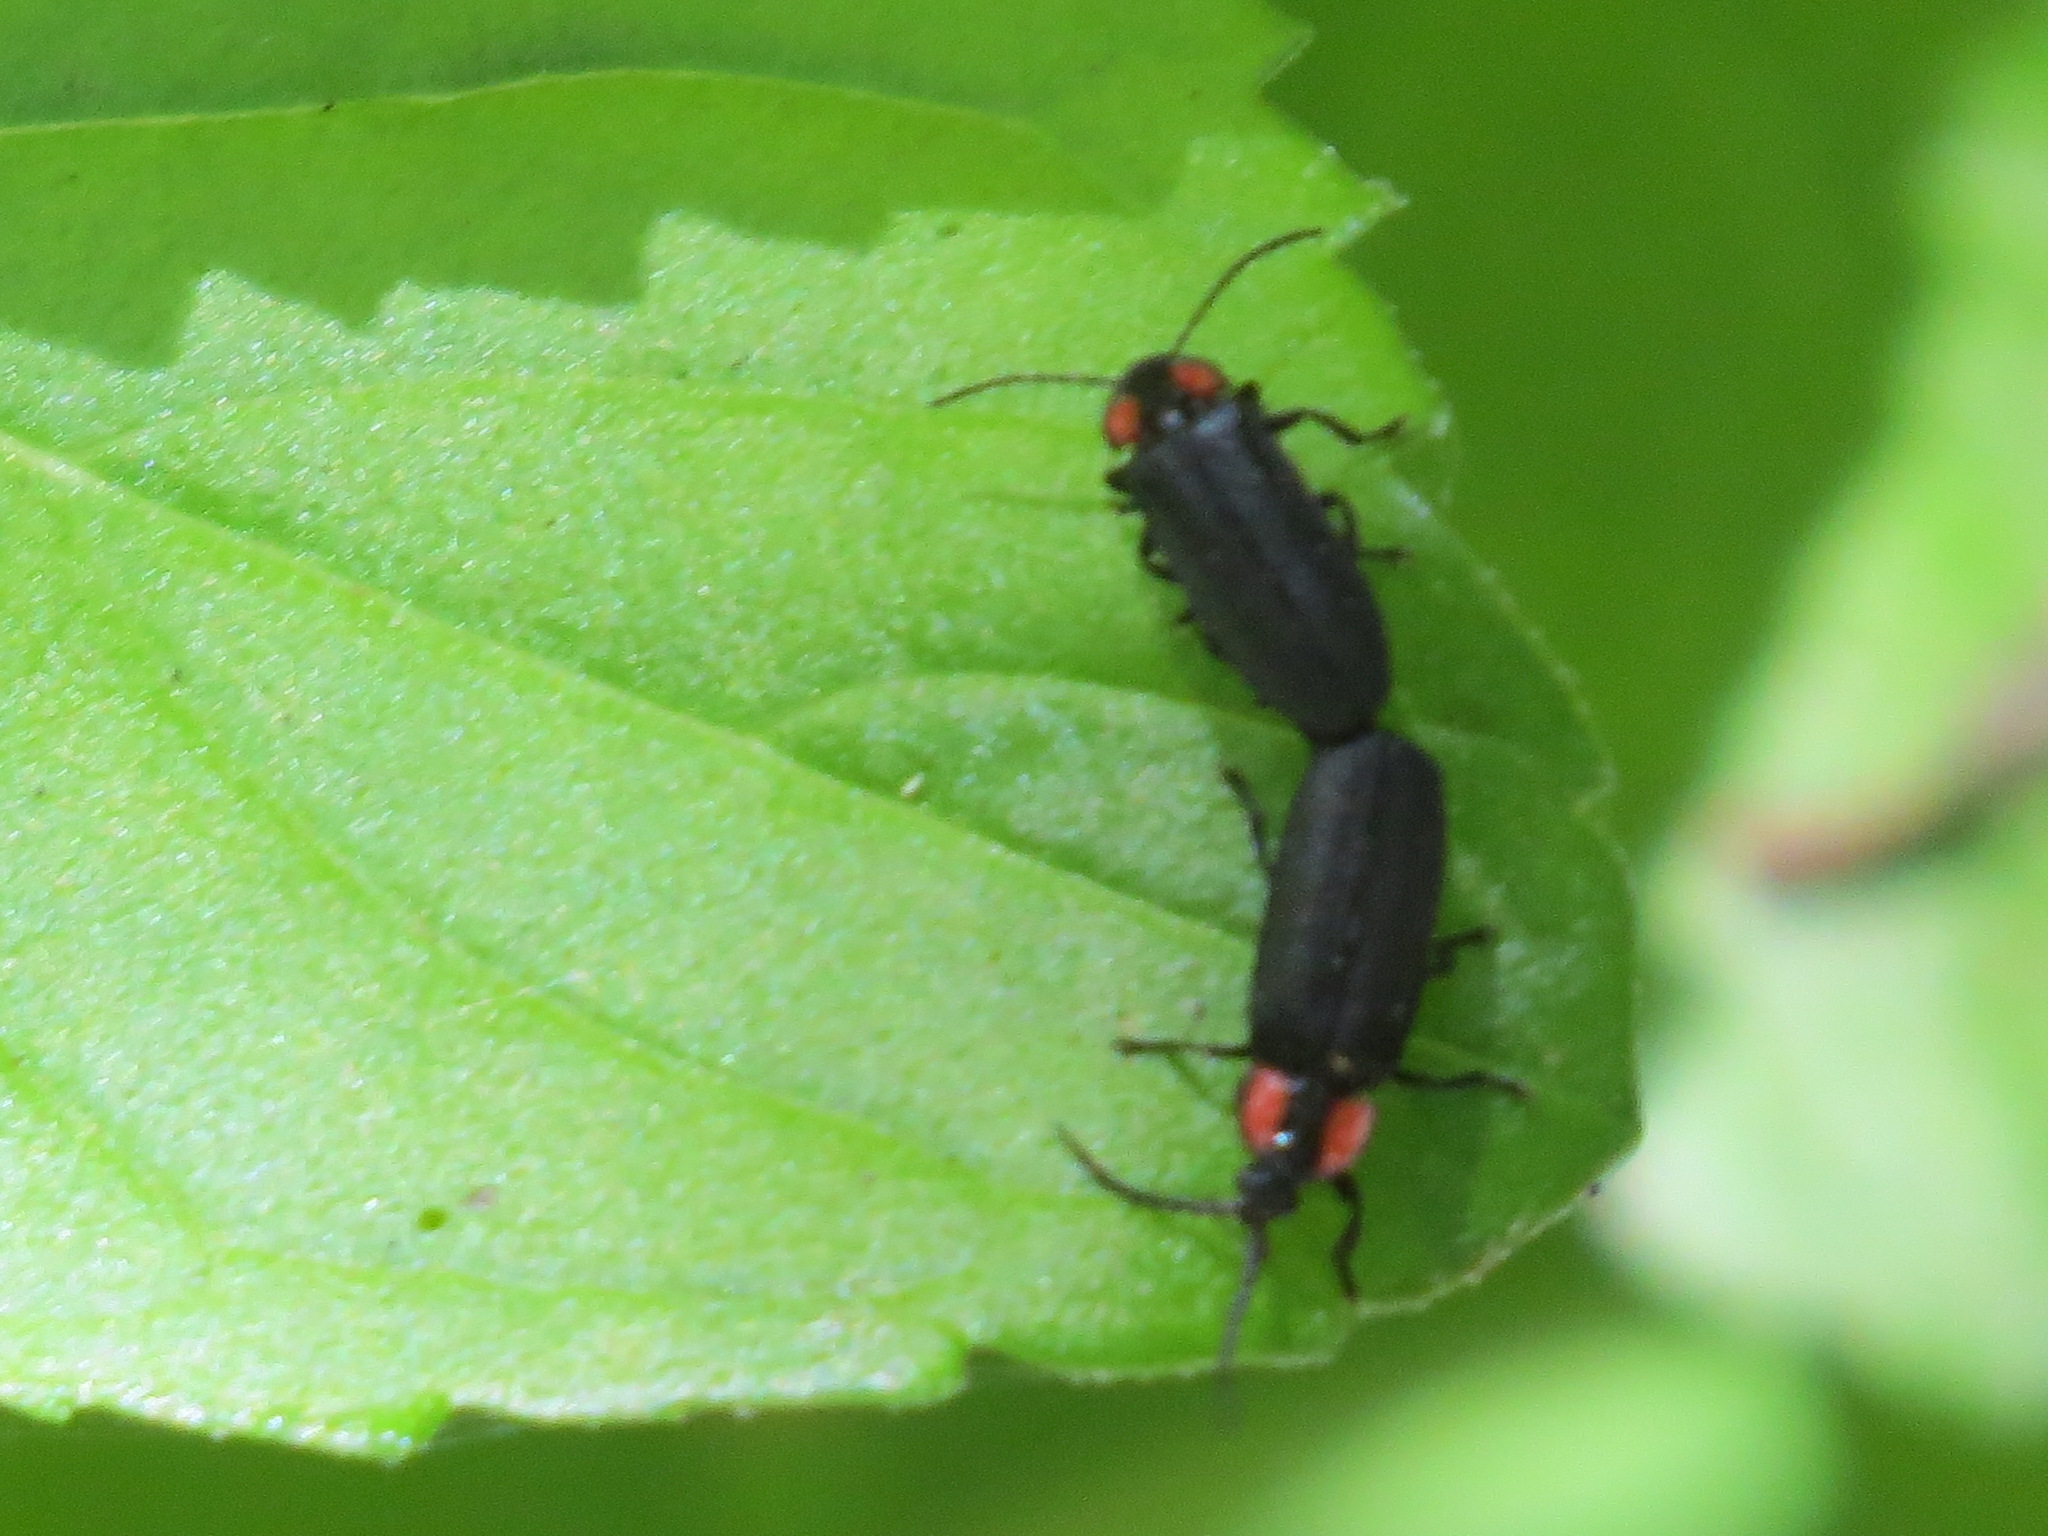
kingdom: Animalia
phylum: Arthropoda
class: Insecta
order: Coleoptera
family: Lampyridae
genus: Pyropyga
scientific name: Pyropyga nigricans
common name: Dark firefly
